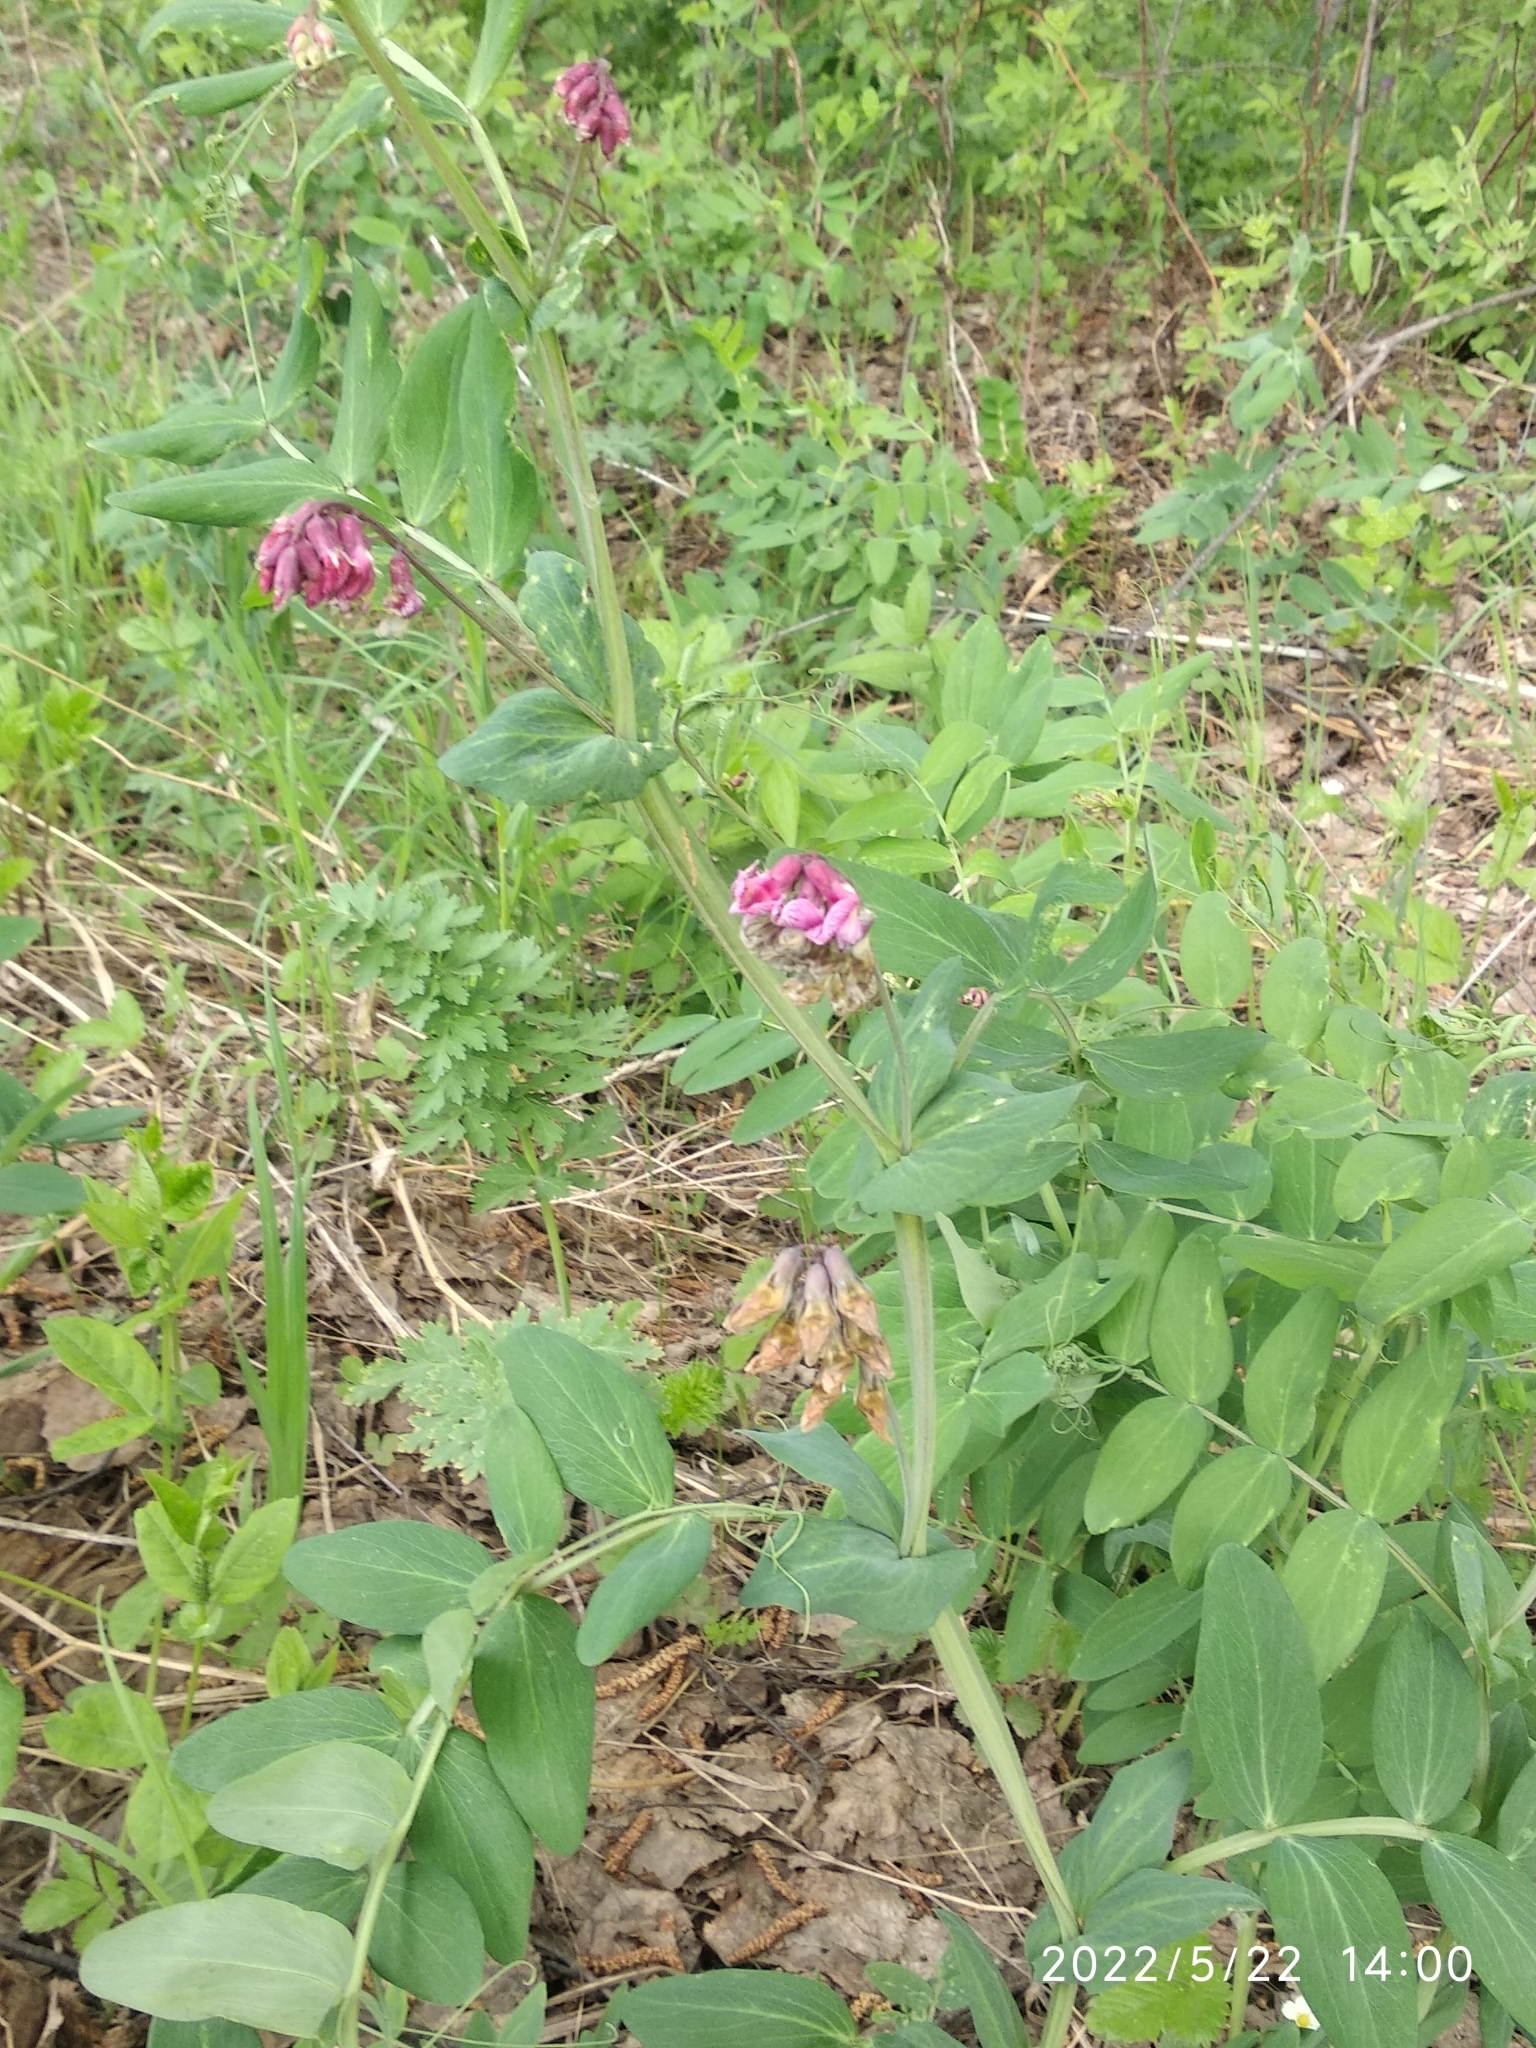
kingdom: Plantae
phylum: Tracheophyta
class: Magnoliopsida
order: Fabales
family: Fabaceae
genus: Lathyrus
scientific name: Lathyrus pisiformis
